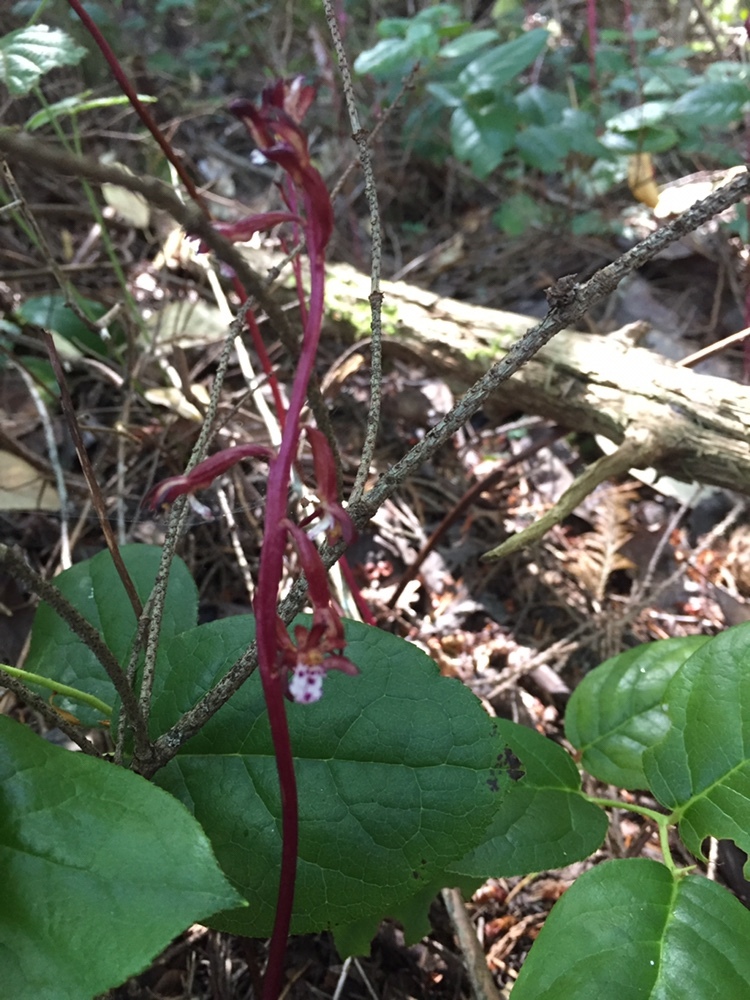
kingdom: Plantae
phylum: Tracheophyta
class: Liliopsida
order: Asparagales
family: Orchidaceae
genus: Corallorhiza
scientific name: Corallorhiza maculata
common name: Spotted coralroot
